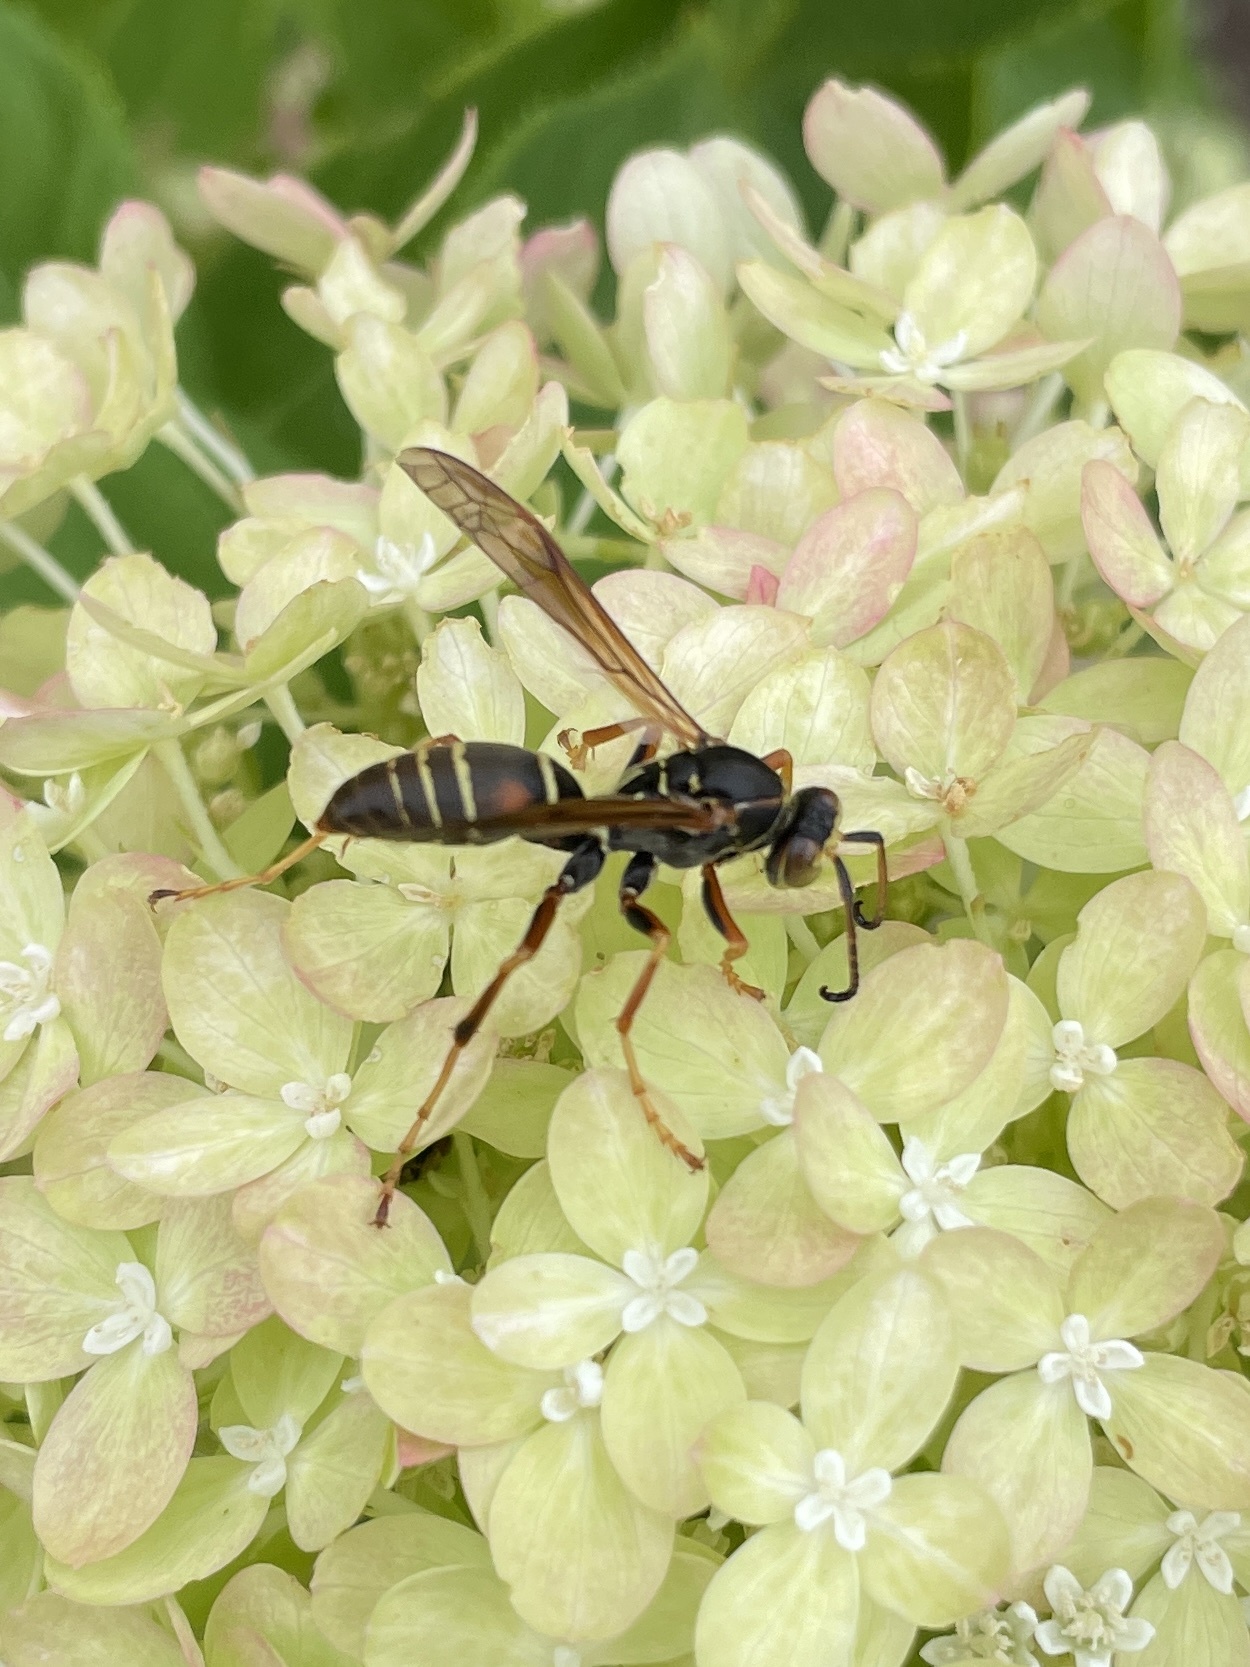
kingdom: Animalia
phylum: Arthropoda
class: Insecta
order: Hymenoptera
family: Eumenidae
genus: Polistes
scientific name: Polistes fuscatus
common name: Dark paper wasp
